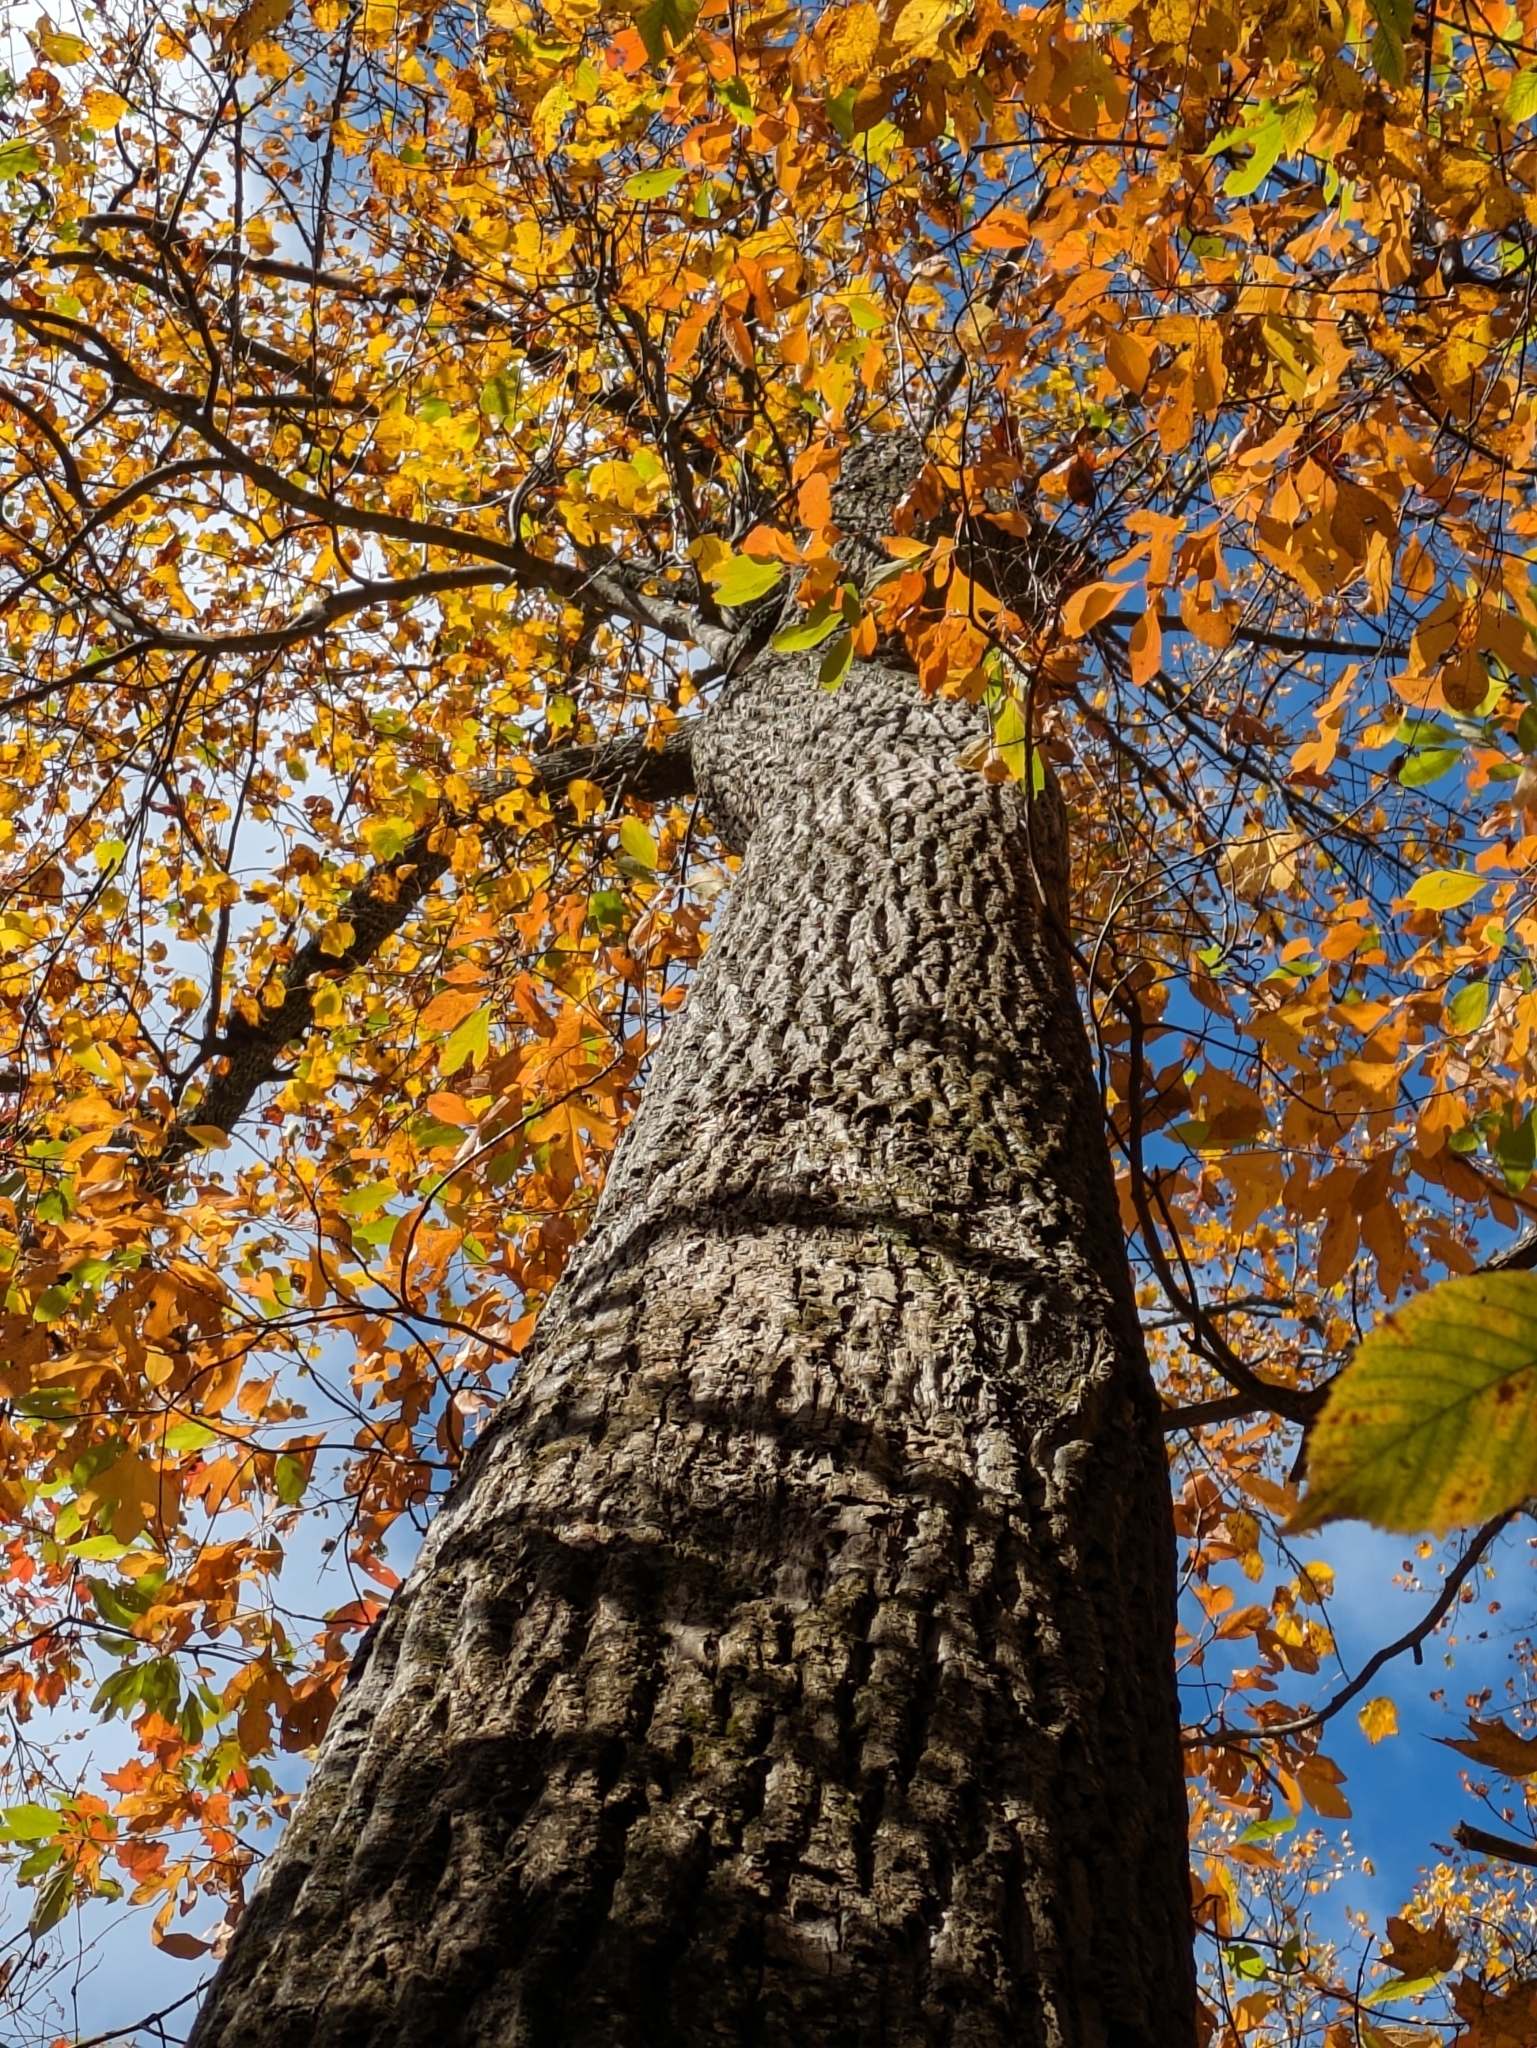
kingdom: Plantae
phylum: Tracheophyta
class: Magnoliopsida
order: Magnoliales
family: Magnoliaceae
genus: Liriodendron
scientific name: Liriodendron tulipifera
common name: Tulip tree
